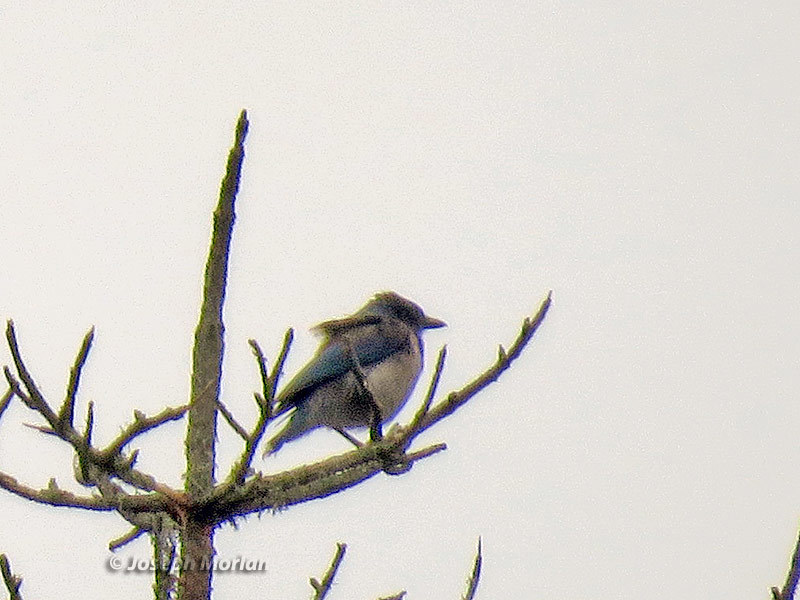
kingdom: Animalia
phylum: Chordata
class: Aves
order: Passeriformes
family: Corvidae
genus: Aphelocoma
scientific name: Aphelocoma californica
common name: California scrub-jay
